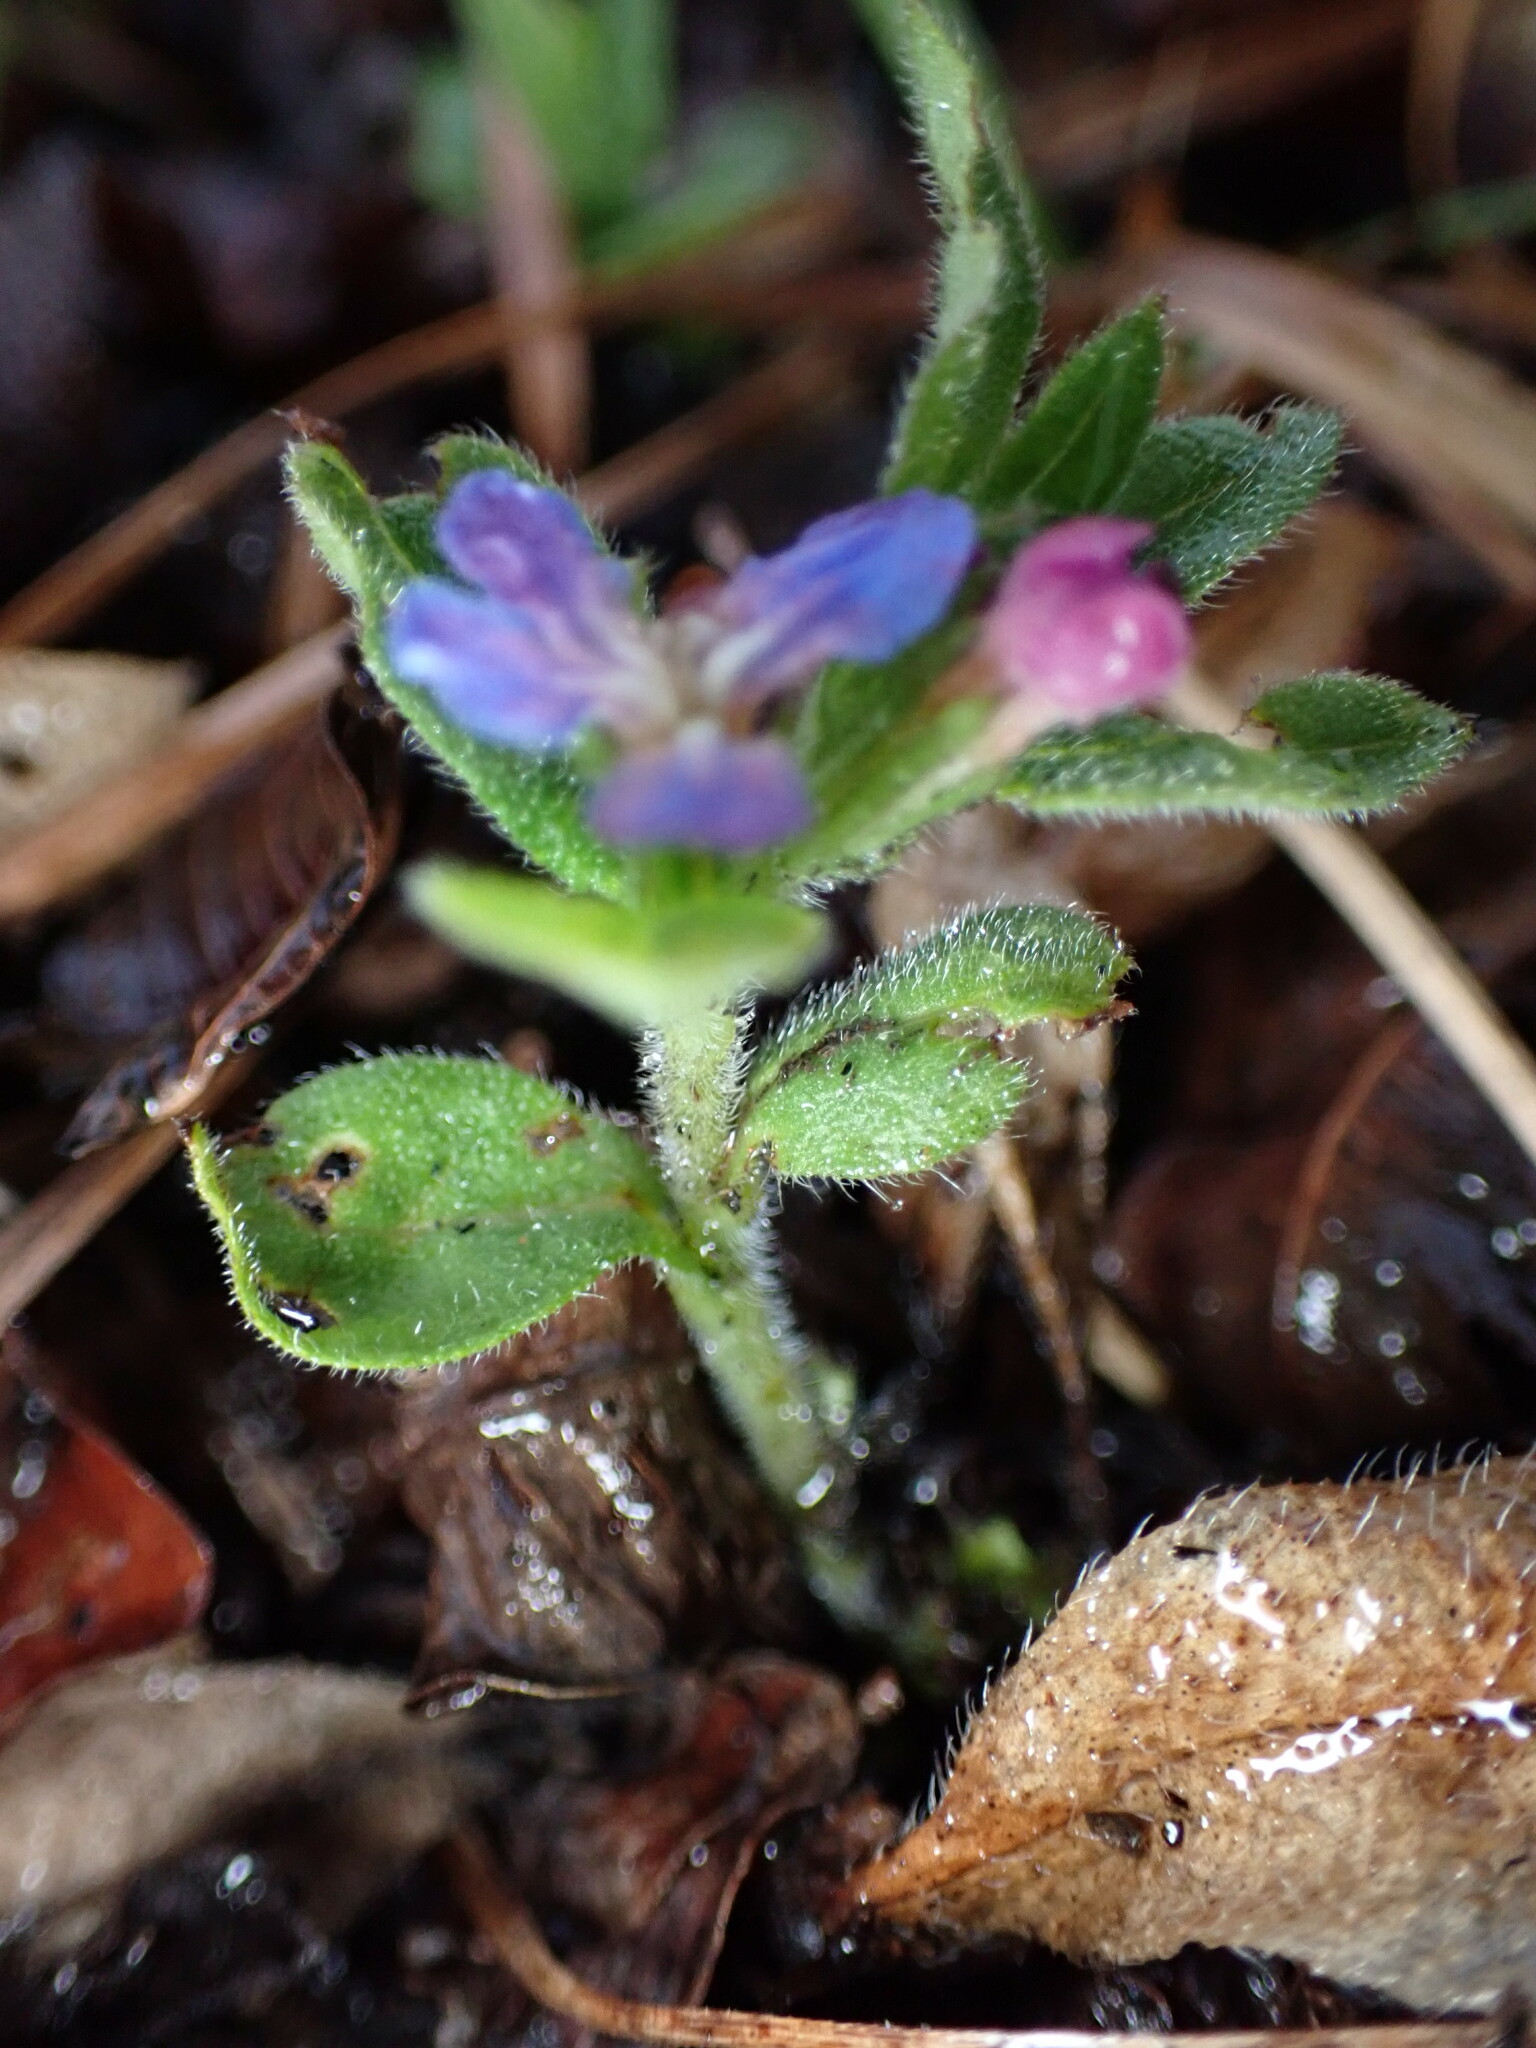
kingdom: Plantae
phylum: Tracheophyta
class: Magnoliopsida
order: Boraginales
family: Boraginaceae
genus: Aegonychon
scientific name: Aegonychon zollingeri
